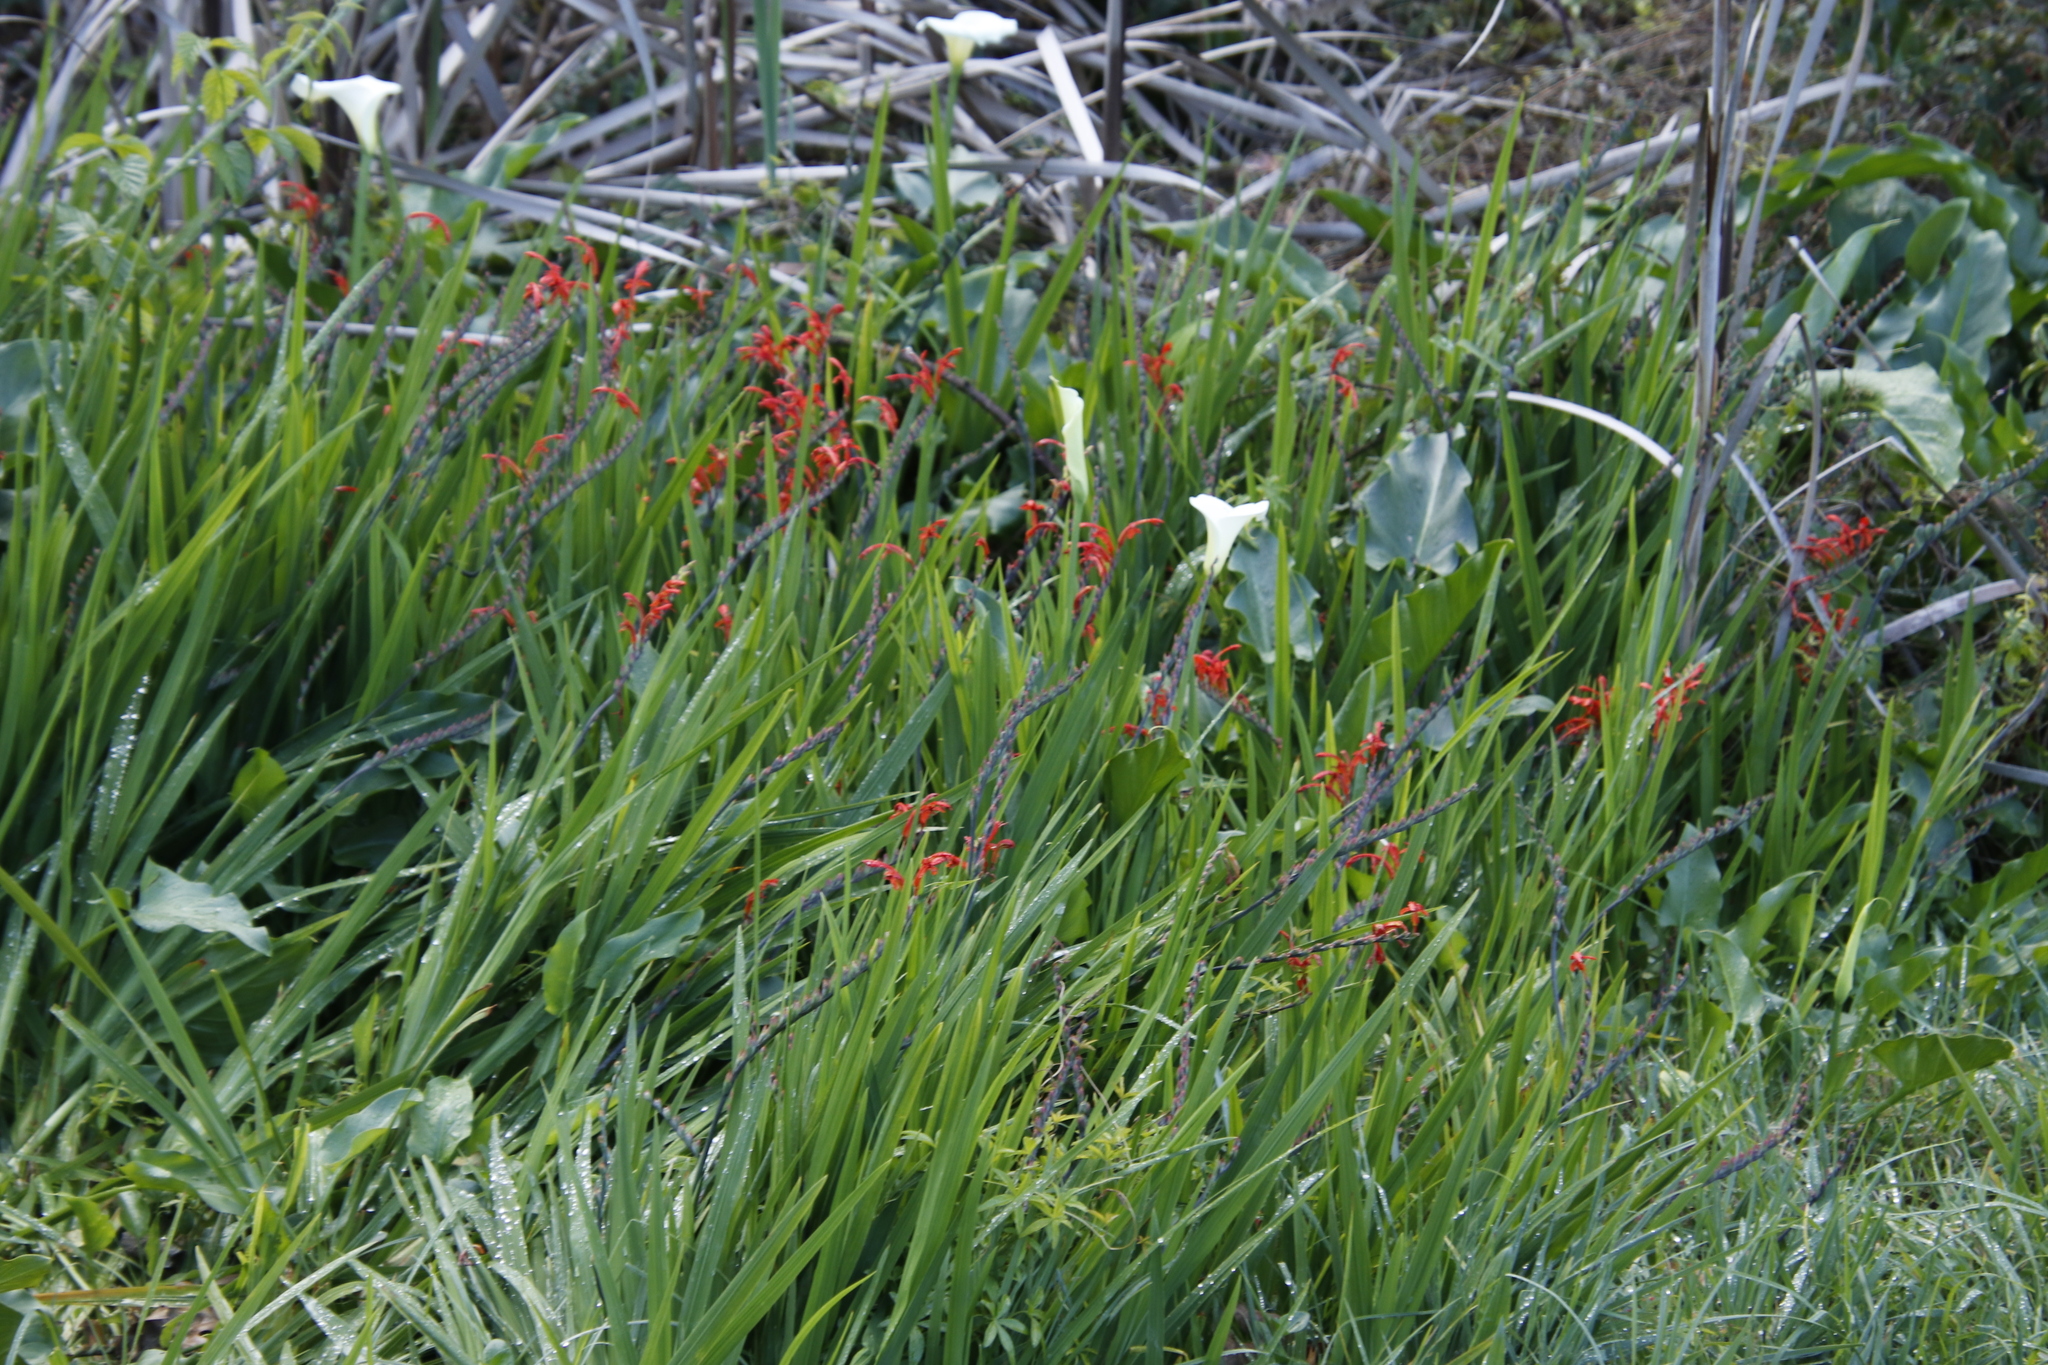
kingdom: Plantae
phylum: Tracheophyta
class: Liliopsida
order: Asparagales
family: Iridaceae
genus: Chasmanthe
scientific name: Chasmanthe floribunda
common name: African cornflag
